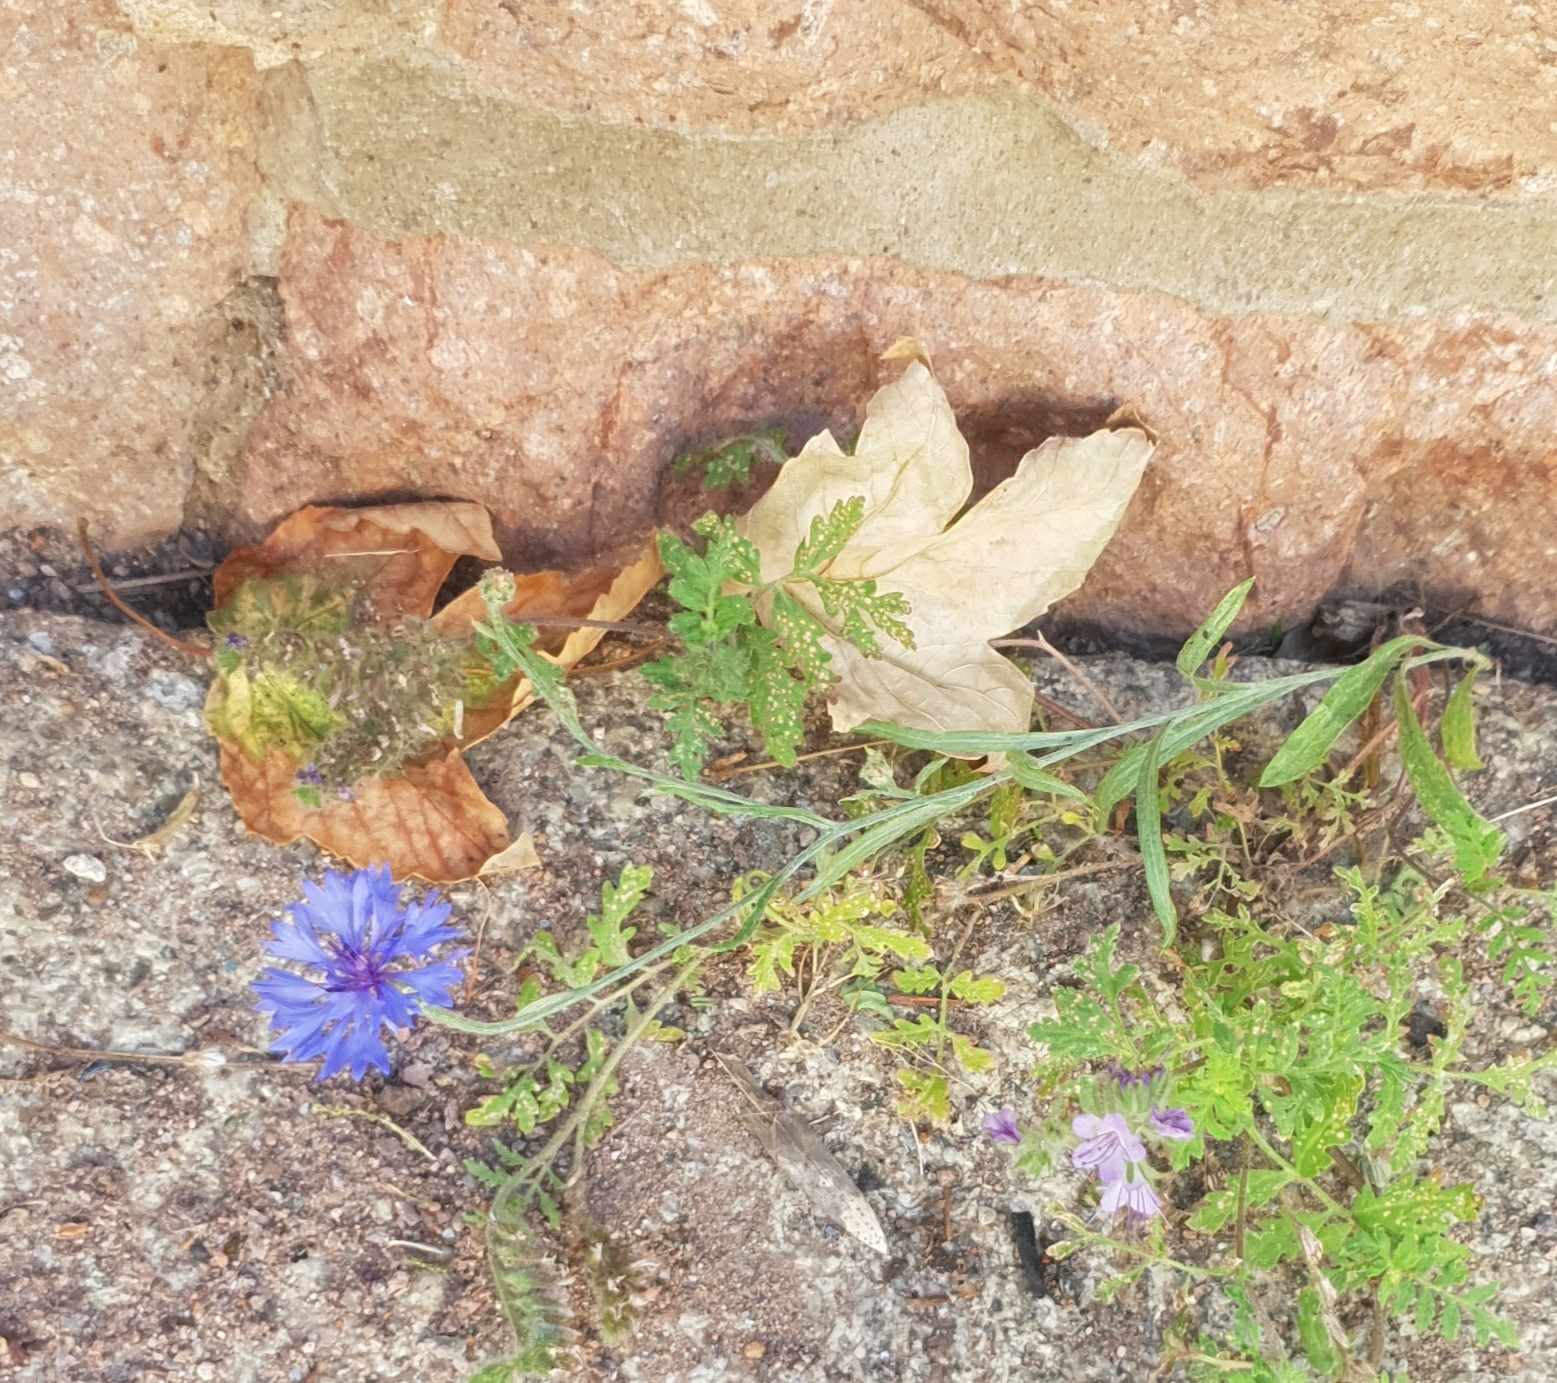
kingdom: Plantae
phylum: Tracheophyta
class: Magnoliopsida
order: Asterales
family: Asteraceae
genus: Centaurea
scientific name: Centaurea cyanus
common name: Cornflower
